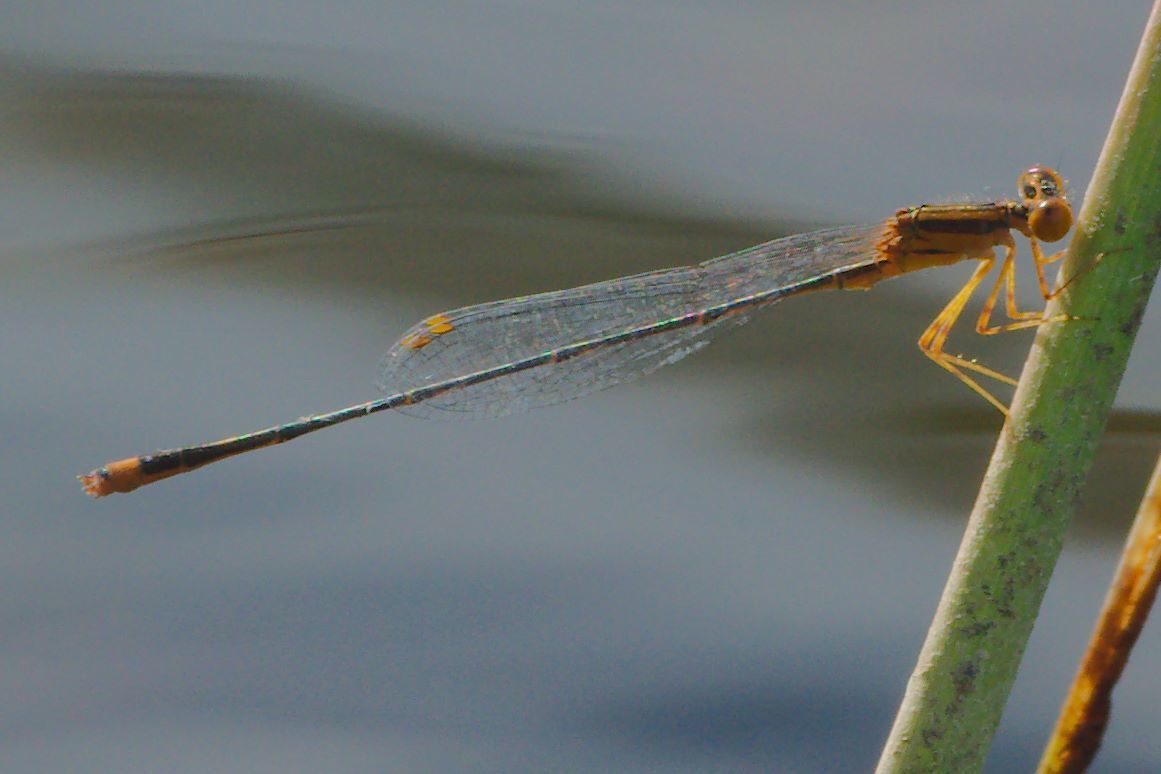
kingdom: Animalia
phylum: Arthropoda
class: Insecta
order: Odonata
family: Coenagrionidae
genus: Enallagma
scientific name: Enallagma pollutum
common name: Florida bluet
